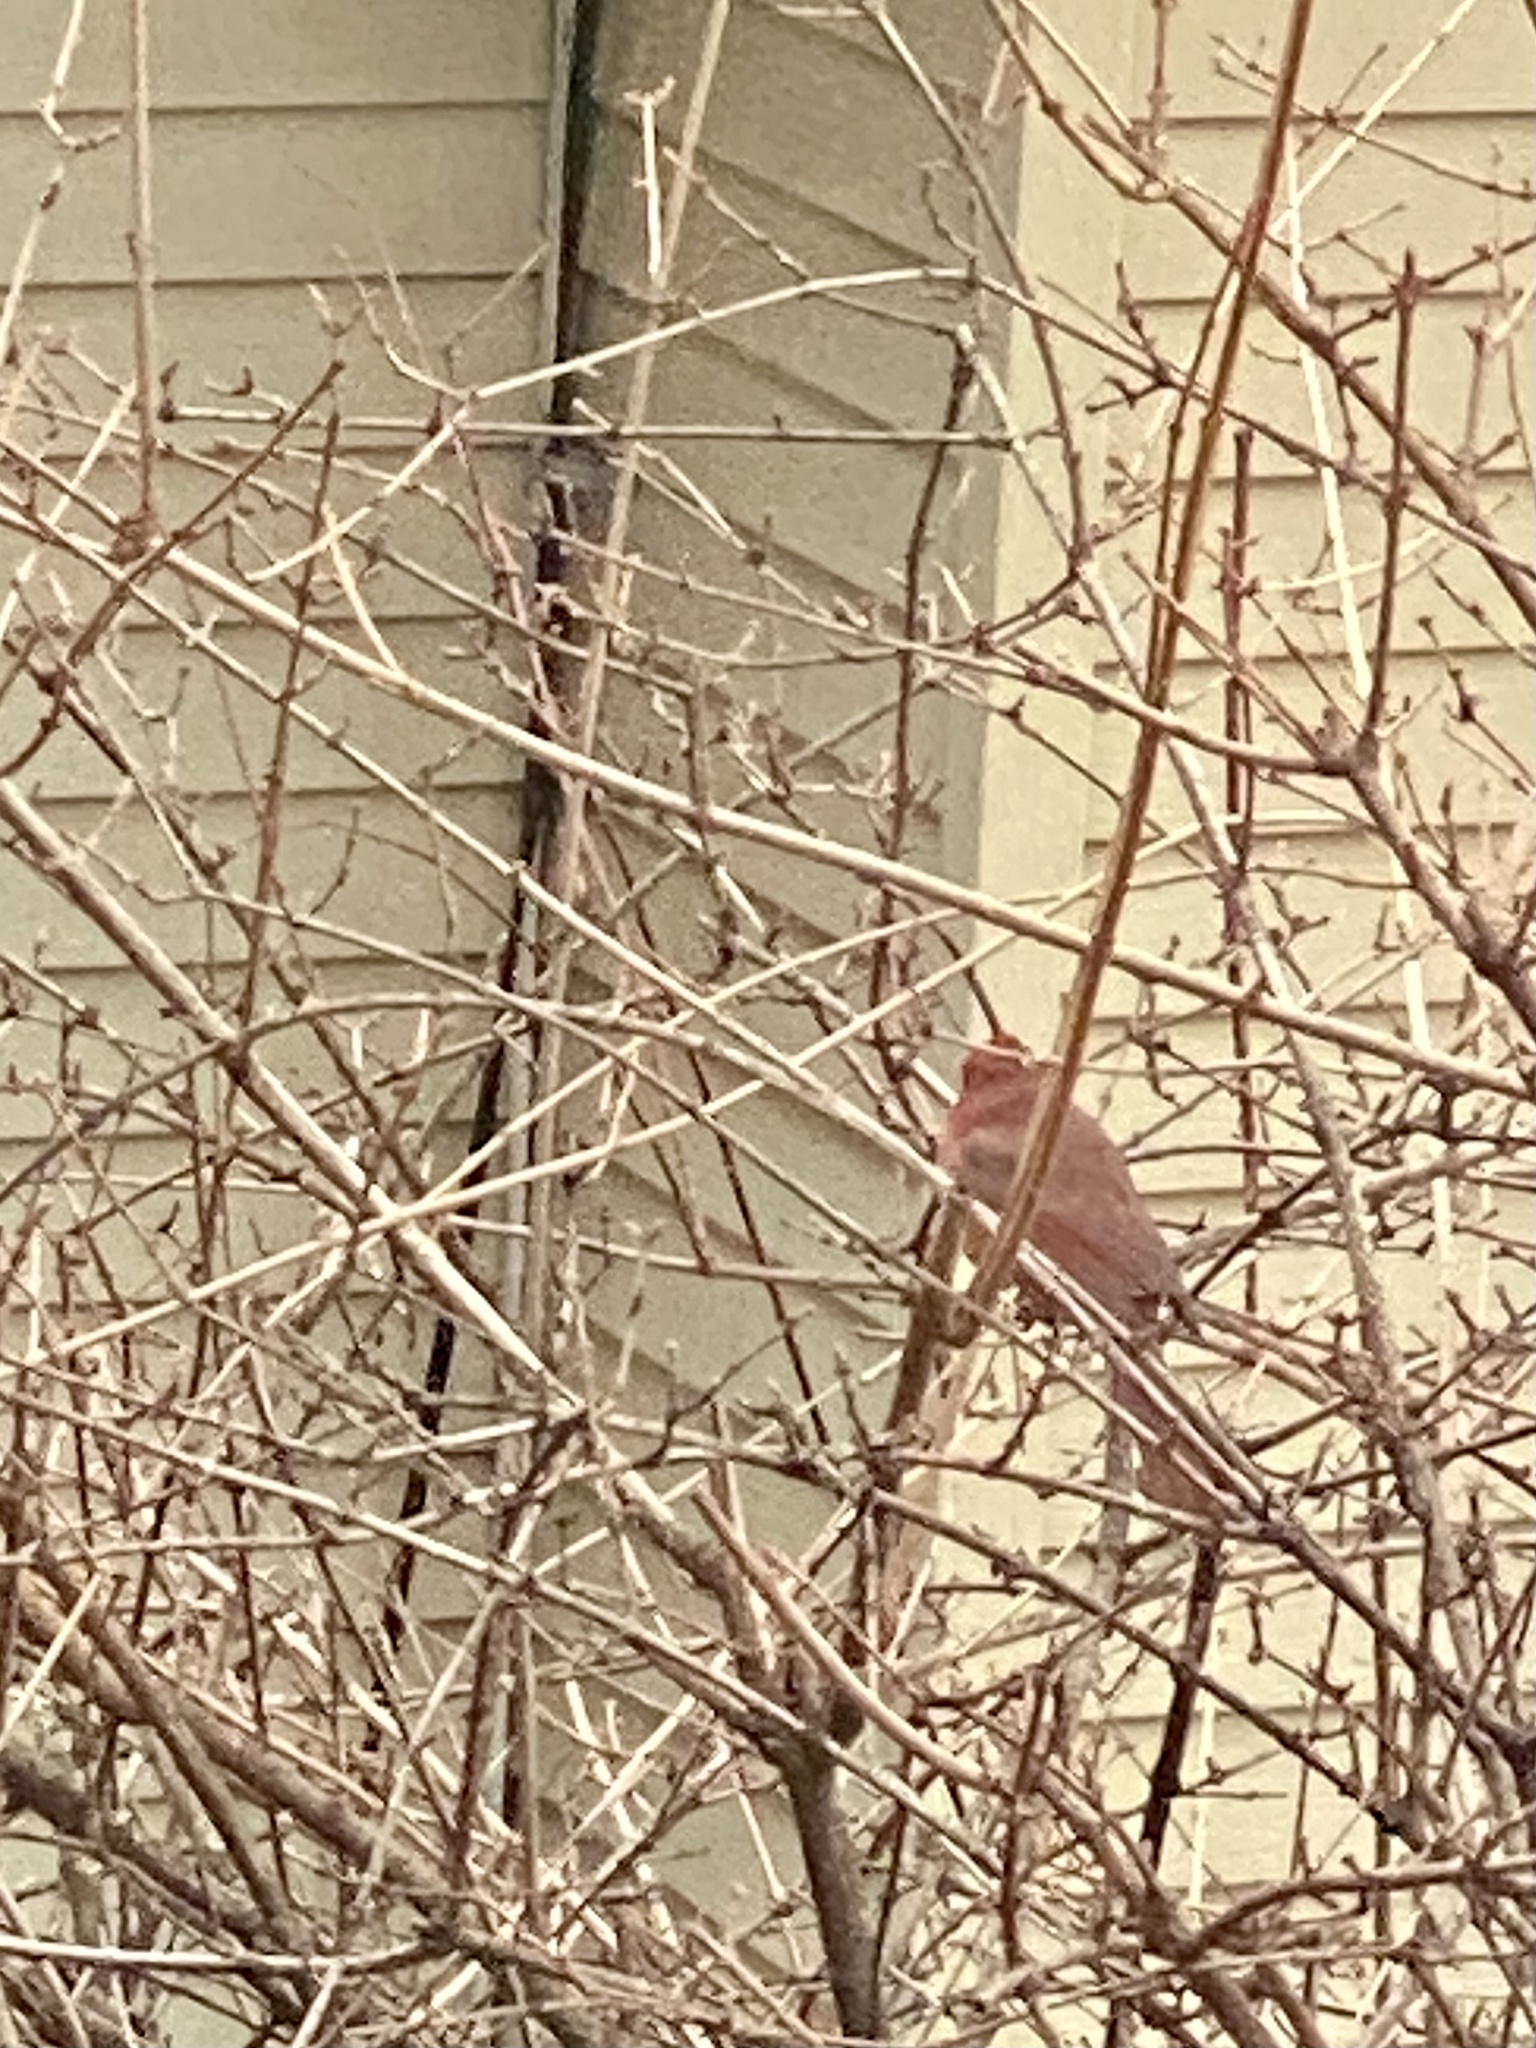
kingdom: Animalia
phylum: Chordata
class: Aves
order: Passeriformes
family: Cardinalidae
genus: Cardinalis
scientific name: Cardinalis cardinalis
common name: Northern cardinal
